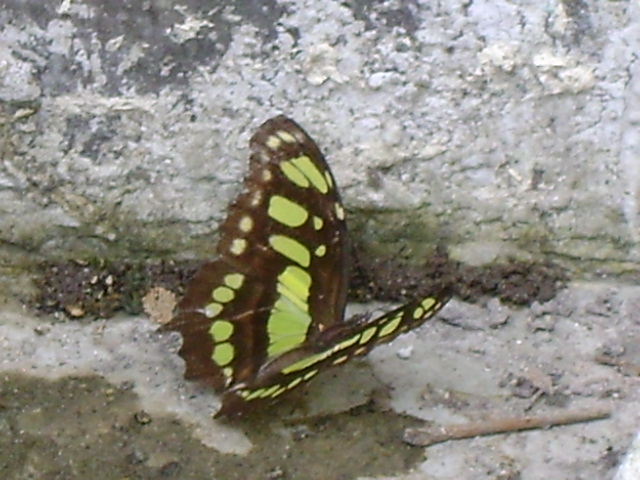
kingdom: Animalia
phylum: Arthropoda
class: Insecta
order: Lepidoptera
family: Nymphalidae
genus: Siproeta
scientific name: Siproeta stelenes
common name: Malachite
